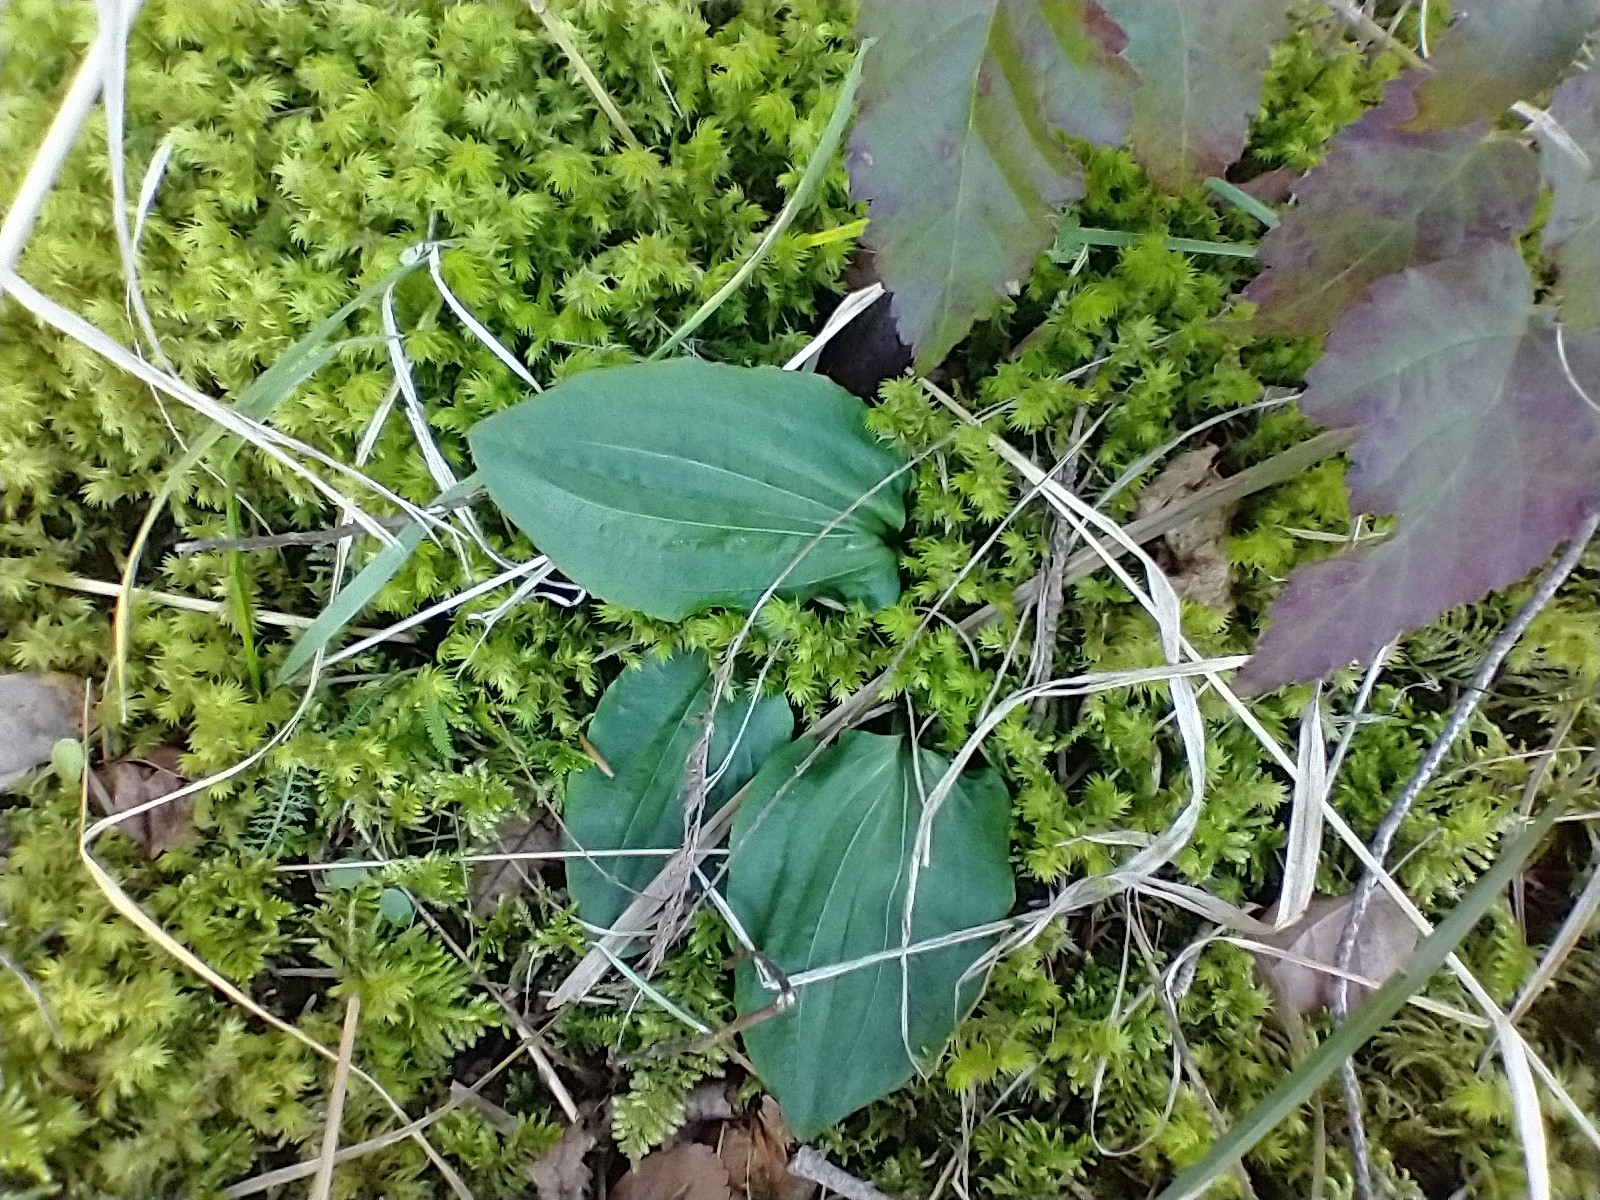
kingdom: Plantae
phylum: Tracheophyta
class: Liliopsida
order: Asparagales
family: Orchidaceae
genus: Calypso
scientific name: Calypso bulbosa
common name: Calypso
